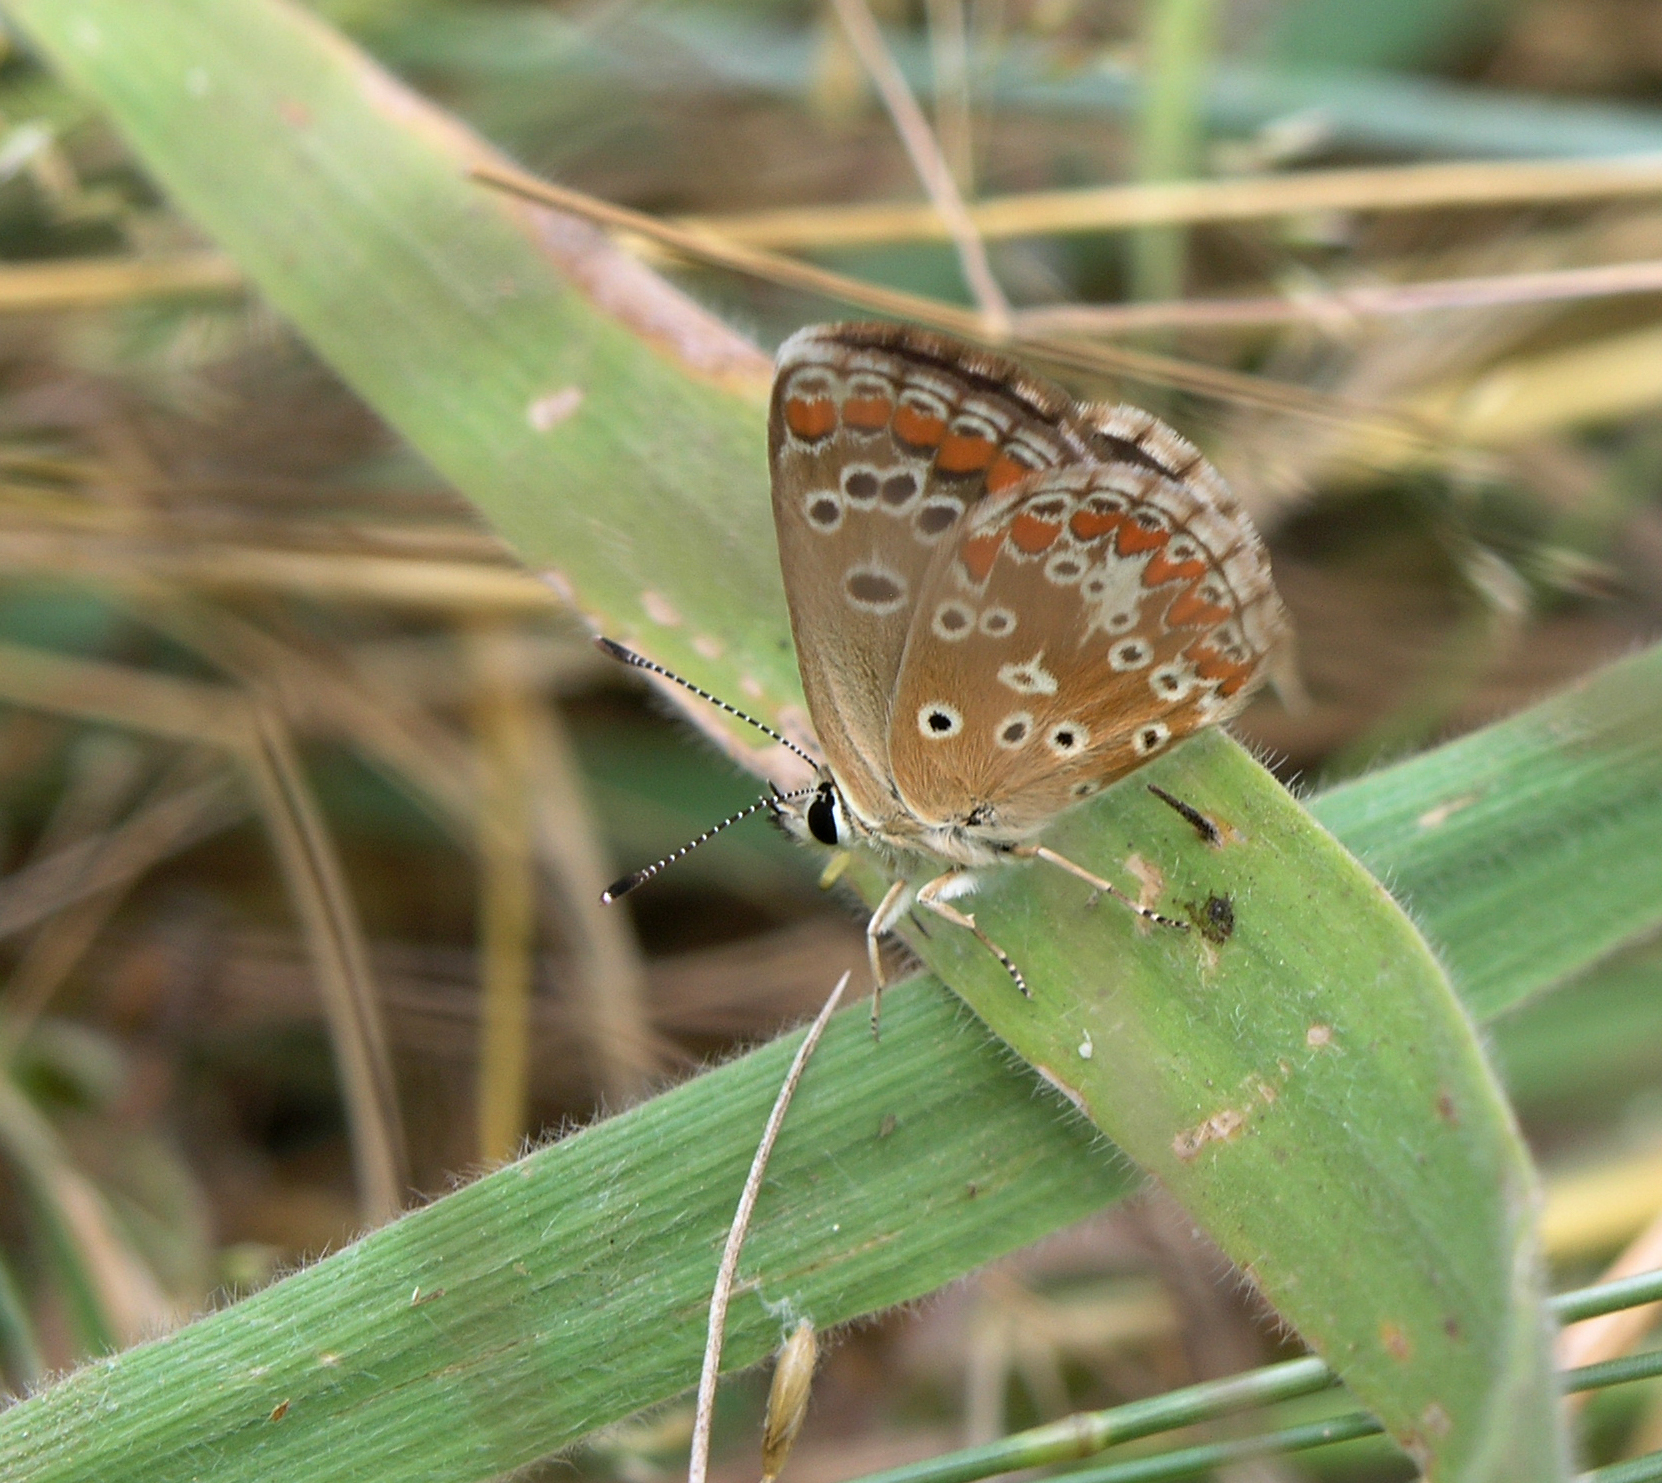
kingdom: Animalia
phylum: Arthropoda
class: Insecta
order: Lepidoptera
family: Lycaenidae
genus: Aricia
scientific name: Aricia cramera
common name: Eschscholtz´s brown  argus
